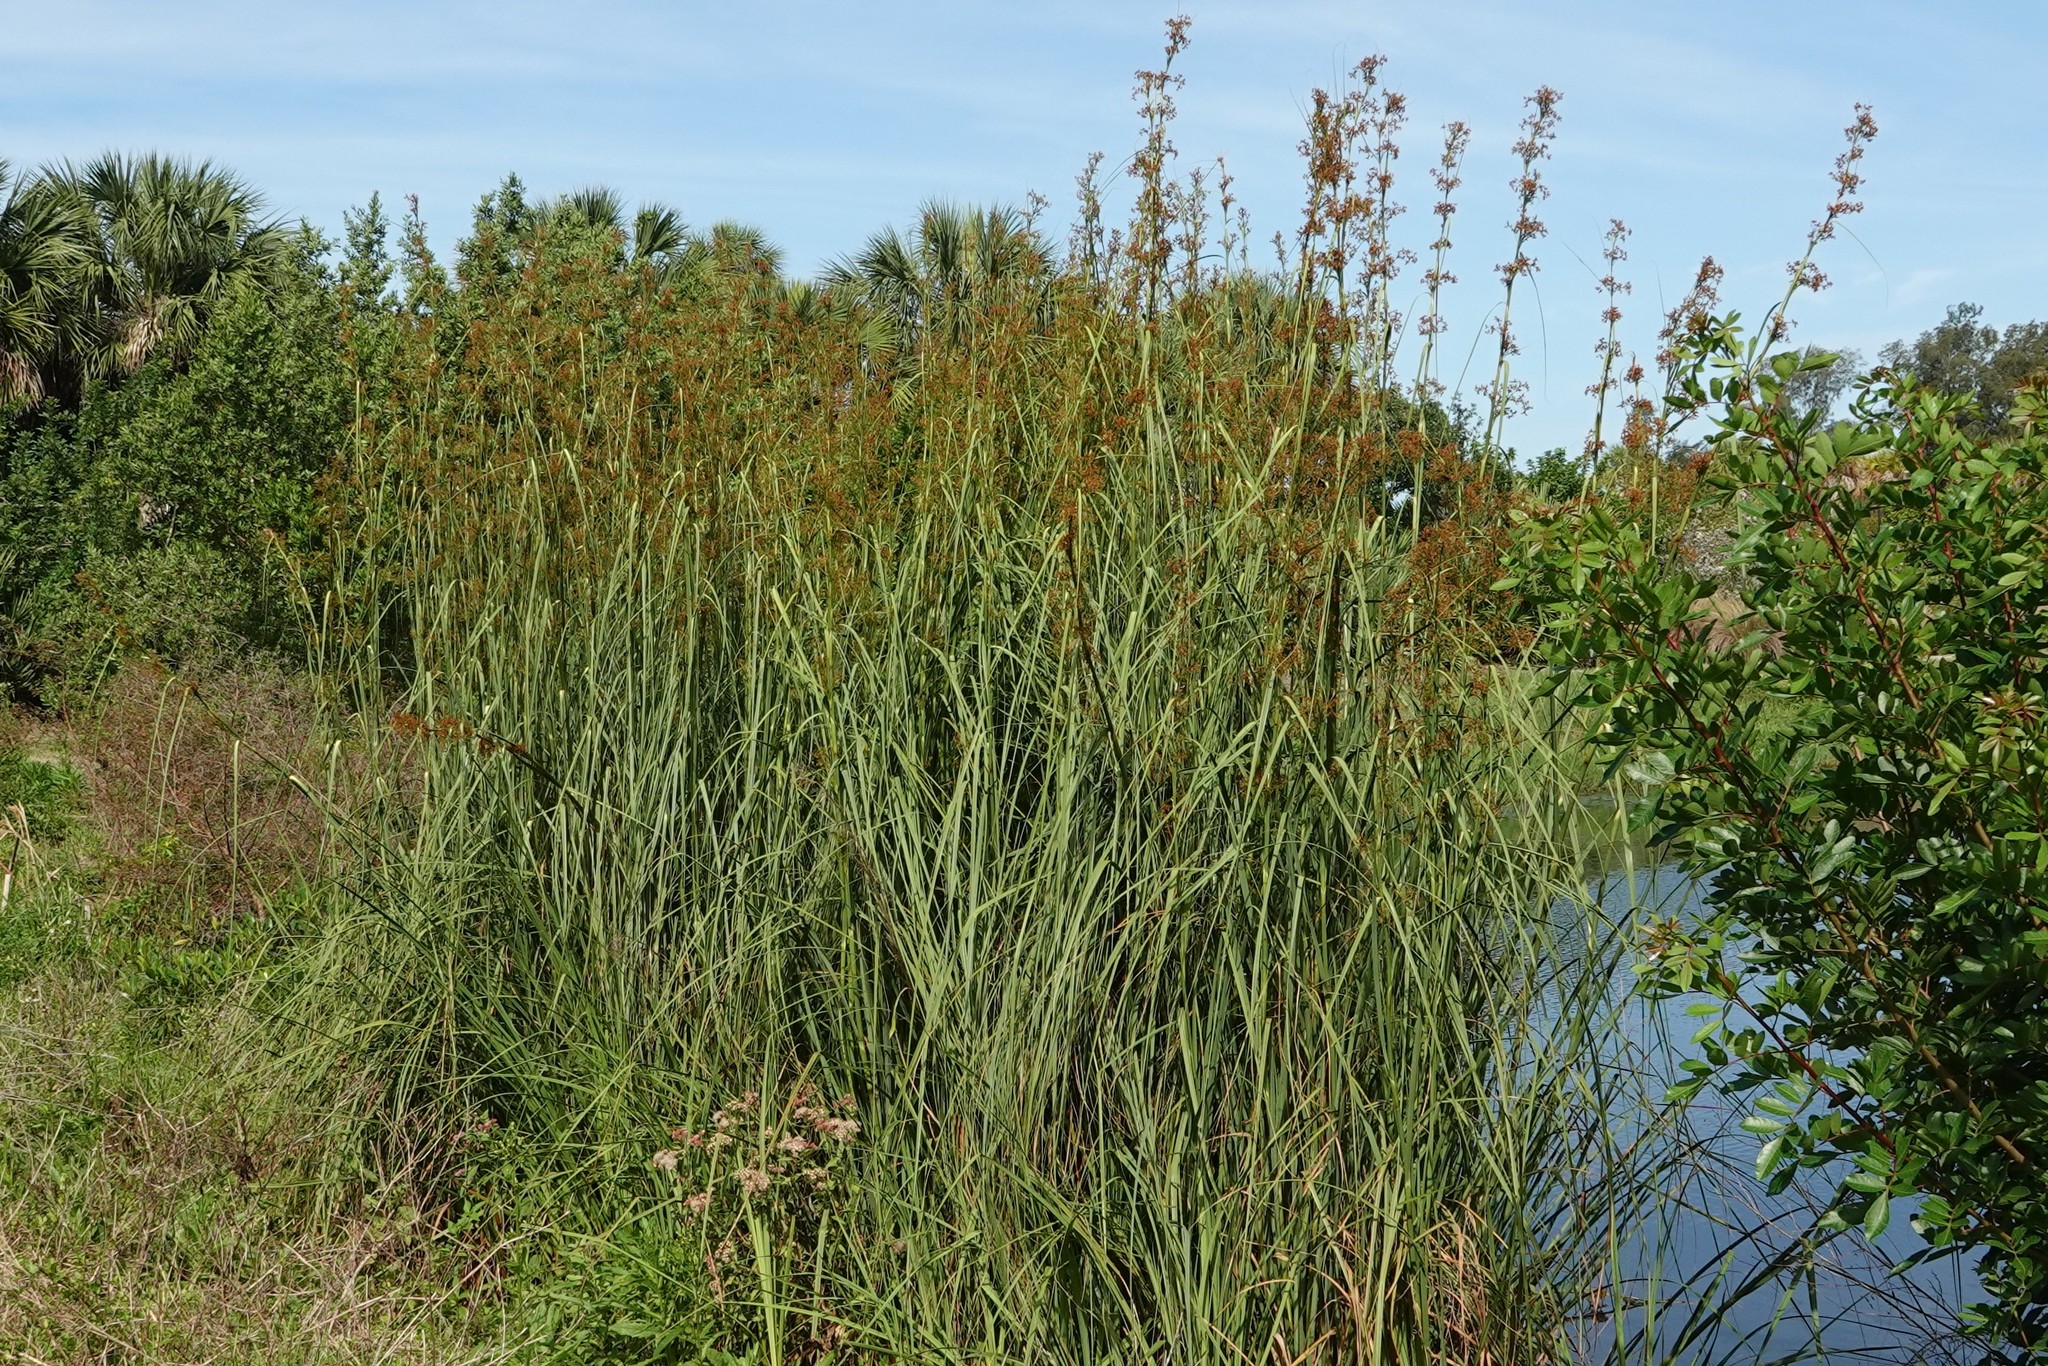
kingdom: Plantae
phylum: Tracheophyta
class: Liliopsida
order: Poales
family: Cyperaceae
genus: Cladium
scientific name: Cladium mariscus
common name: Great fen-sedge
